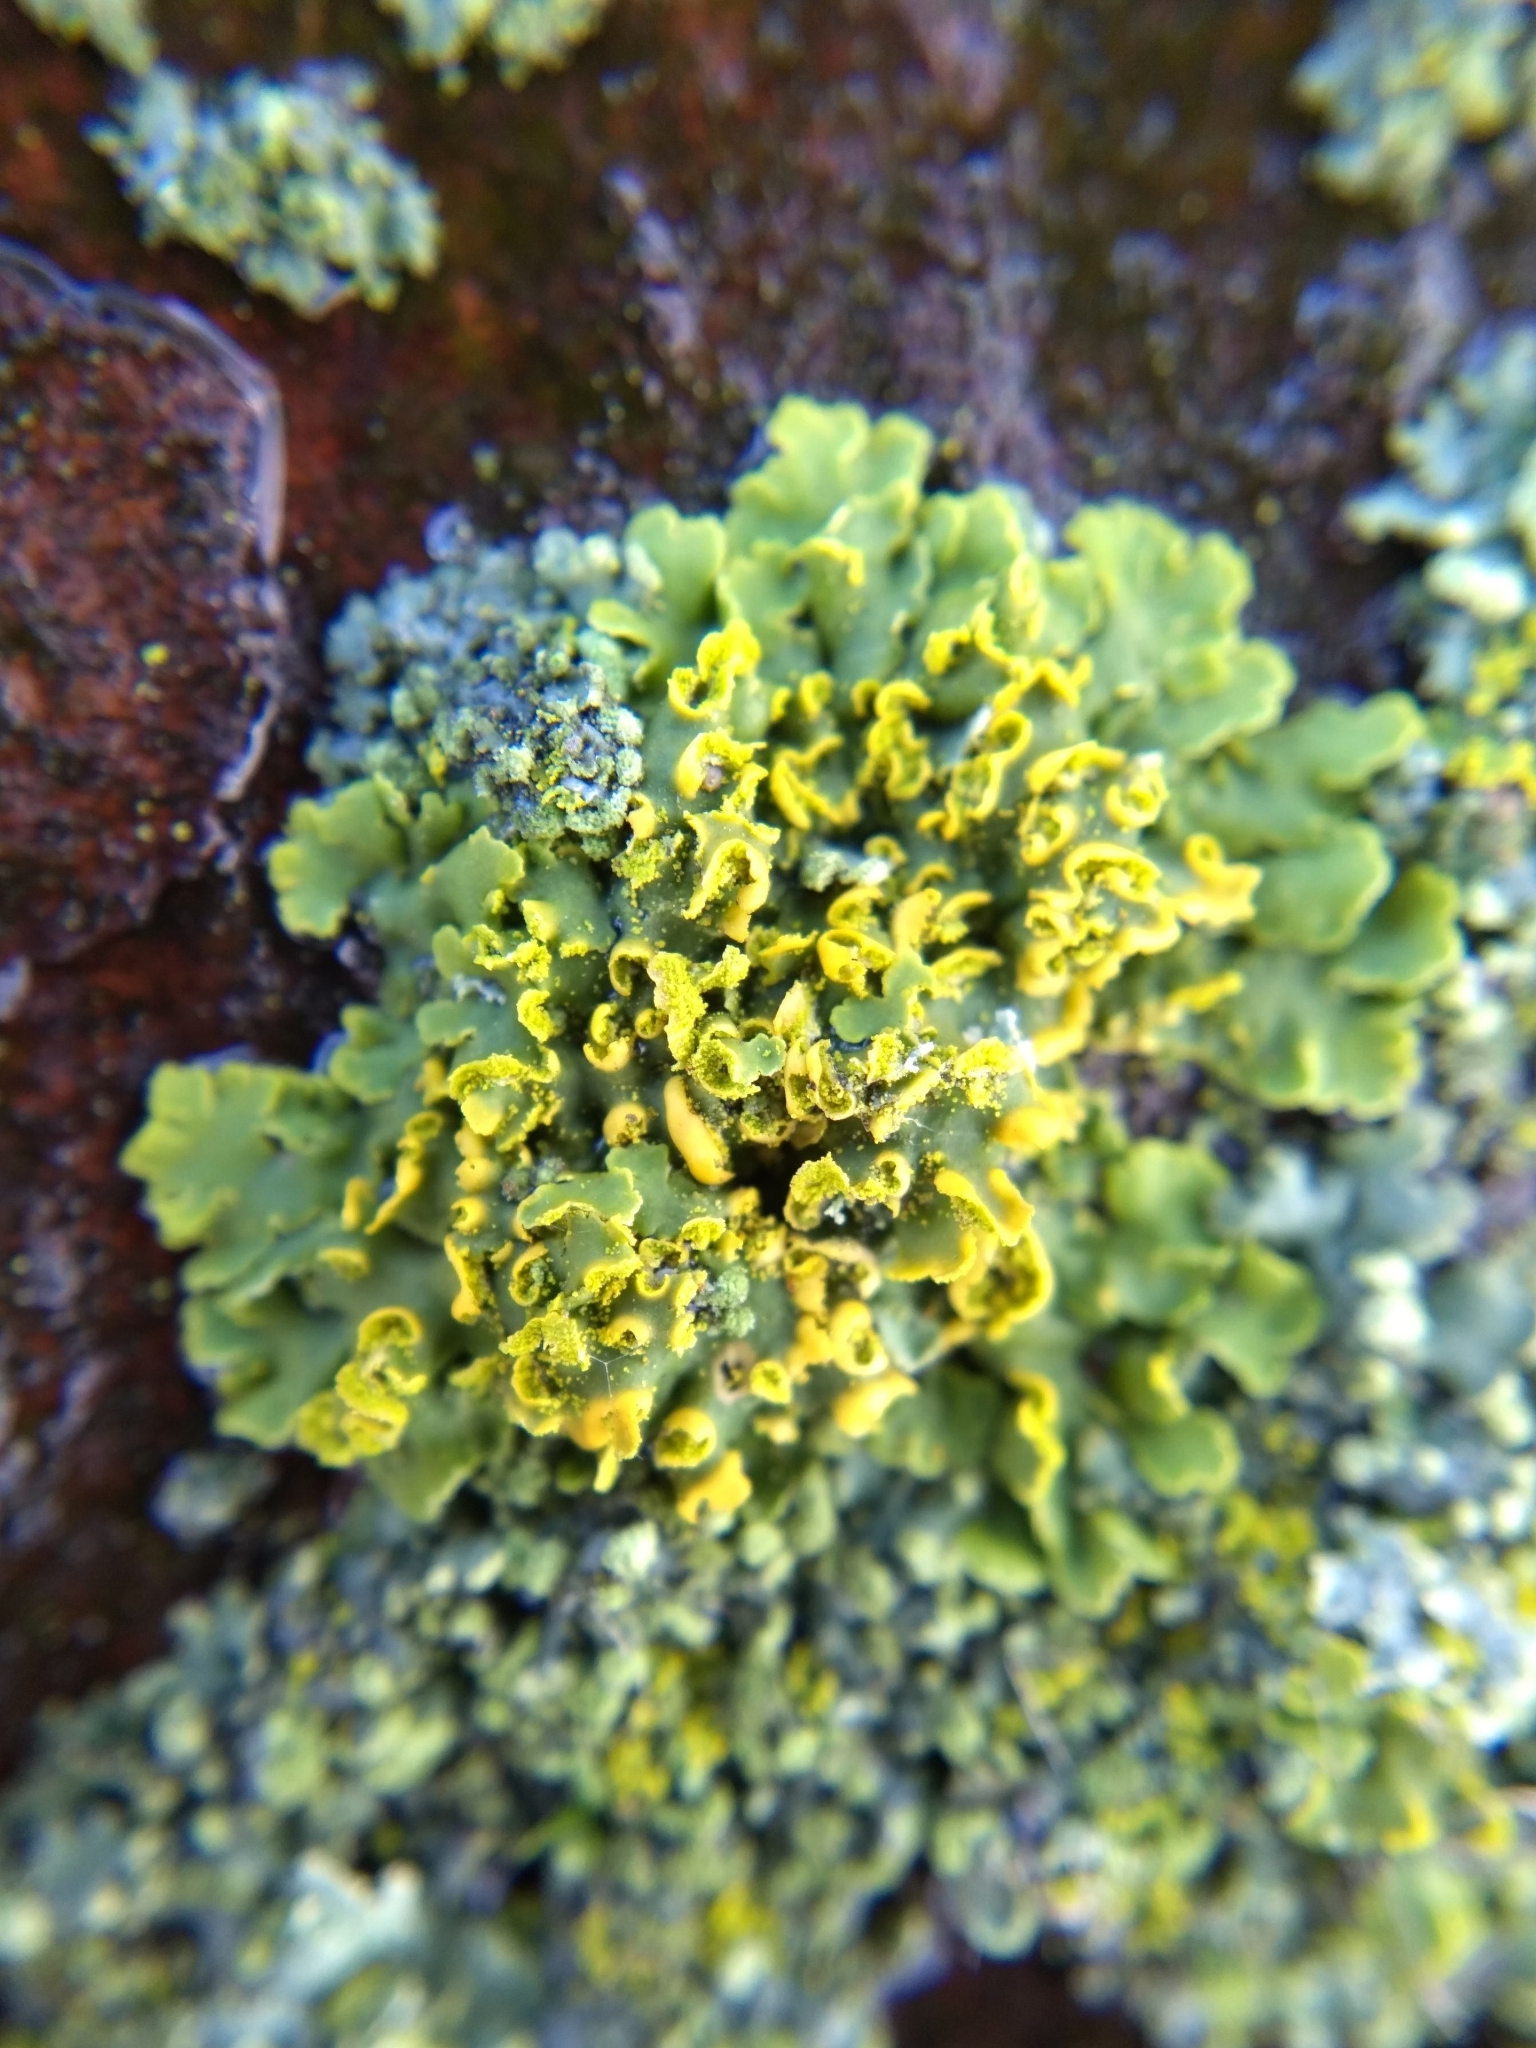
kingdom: Fungi
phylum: Ascomycota
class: Lecanoromycetes
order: Teloschistales
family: Teloschistaceae
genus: Oxneria
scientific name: Oxneria fallax
